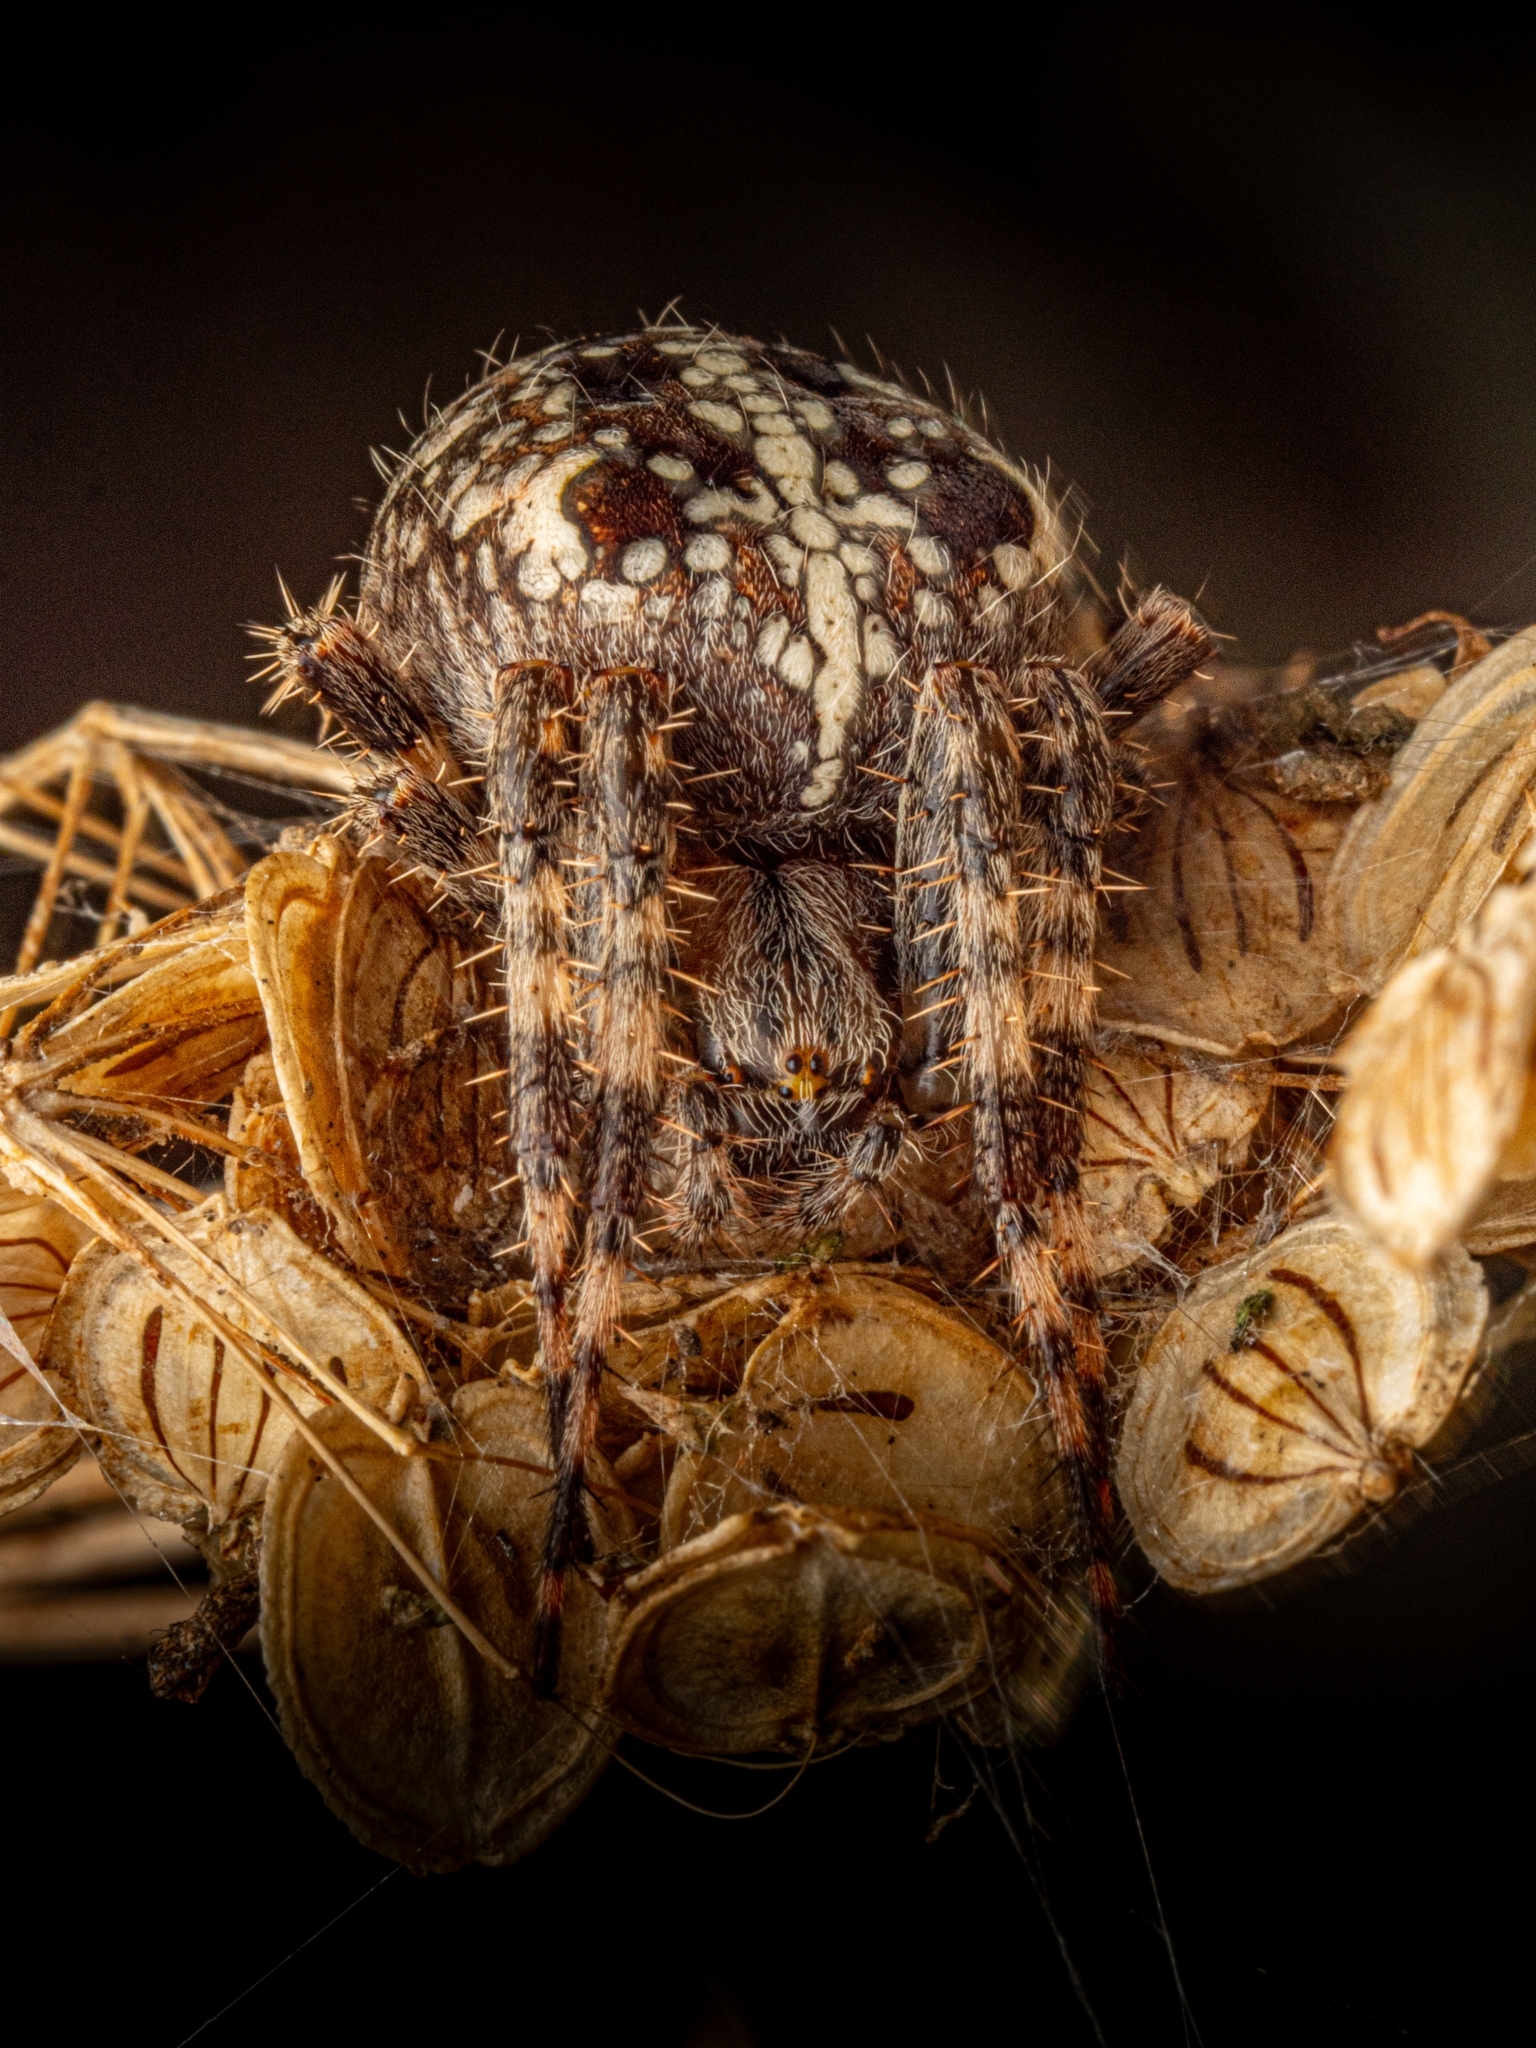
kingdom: Animalia
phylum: Arthropoda
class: Arachnida
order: Araneae
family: Araneidae
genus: Araneus
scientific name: Araneus diadematus
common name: Cross orbweaver
